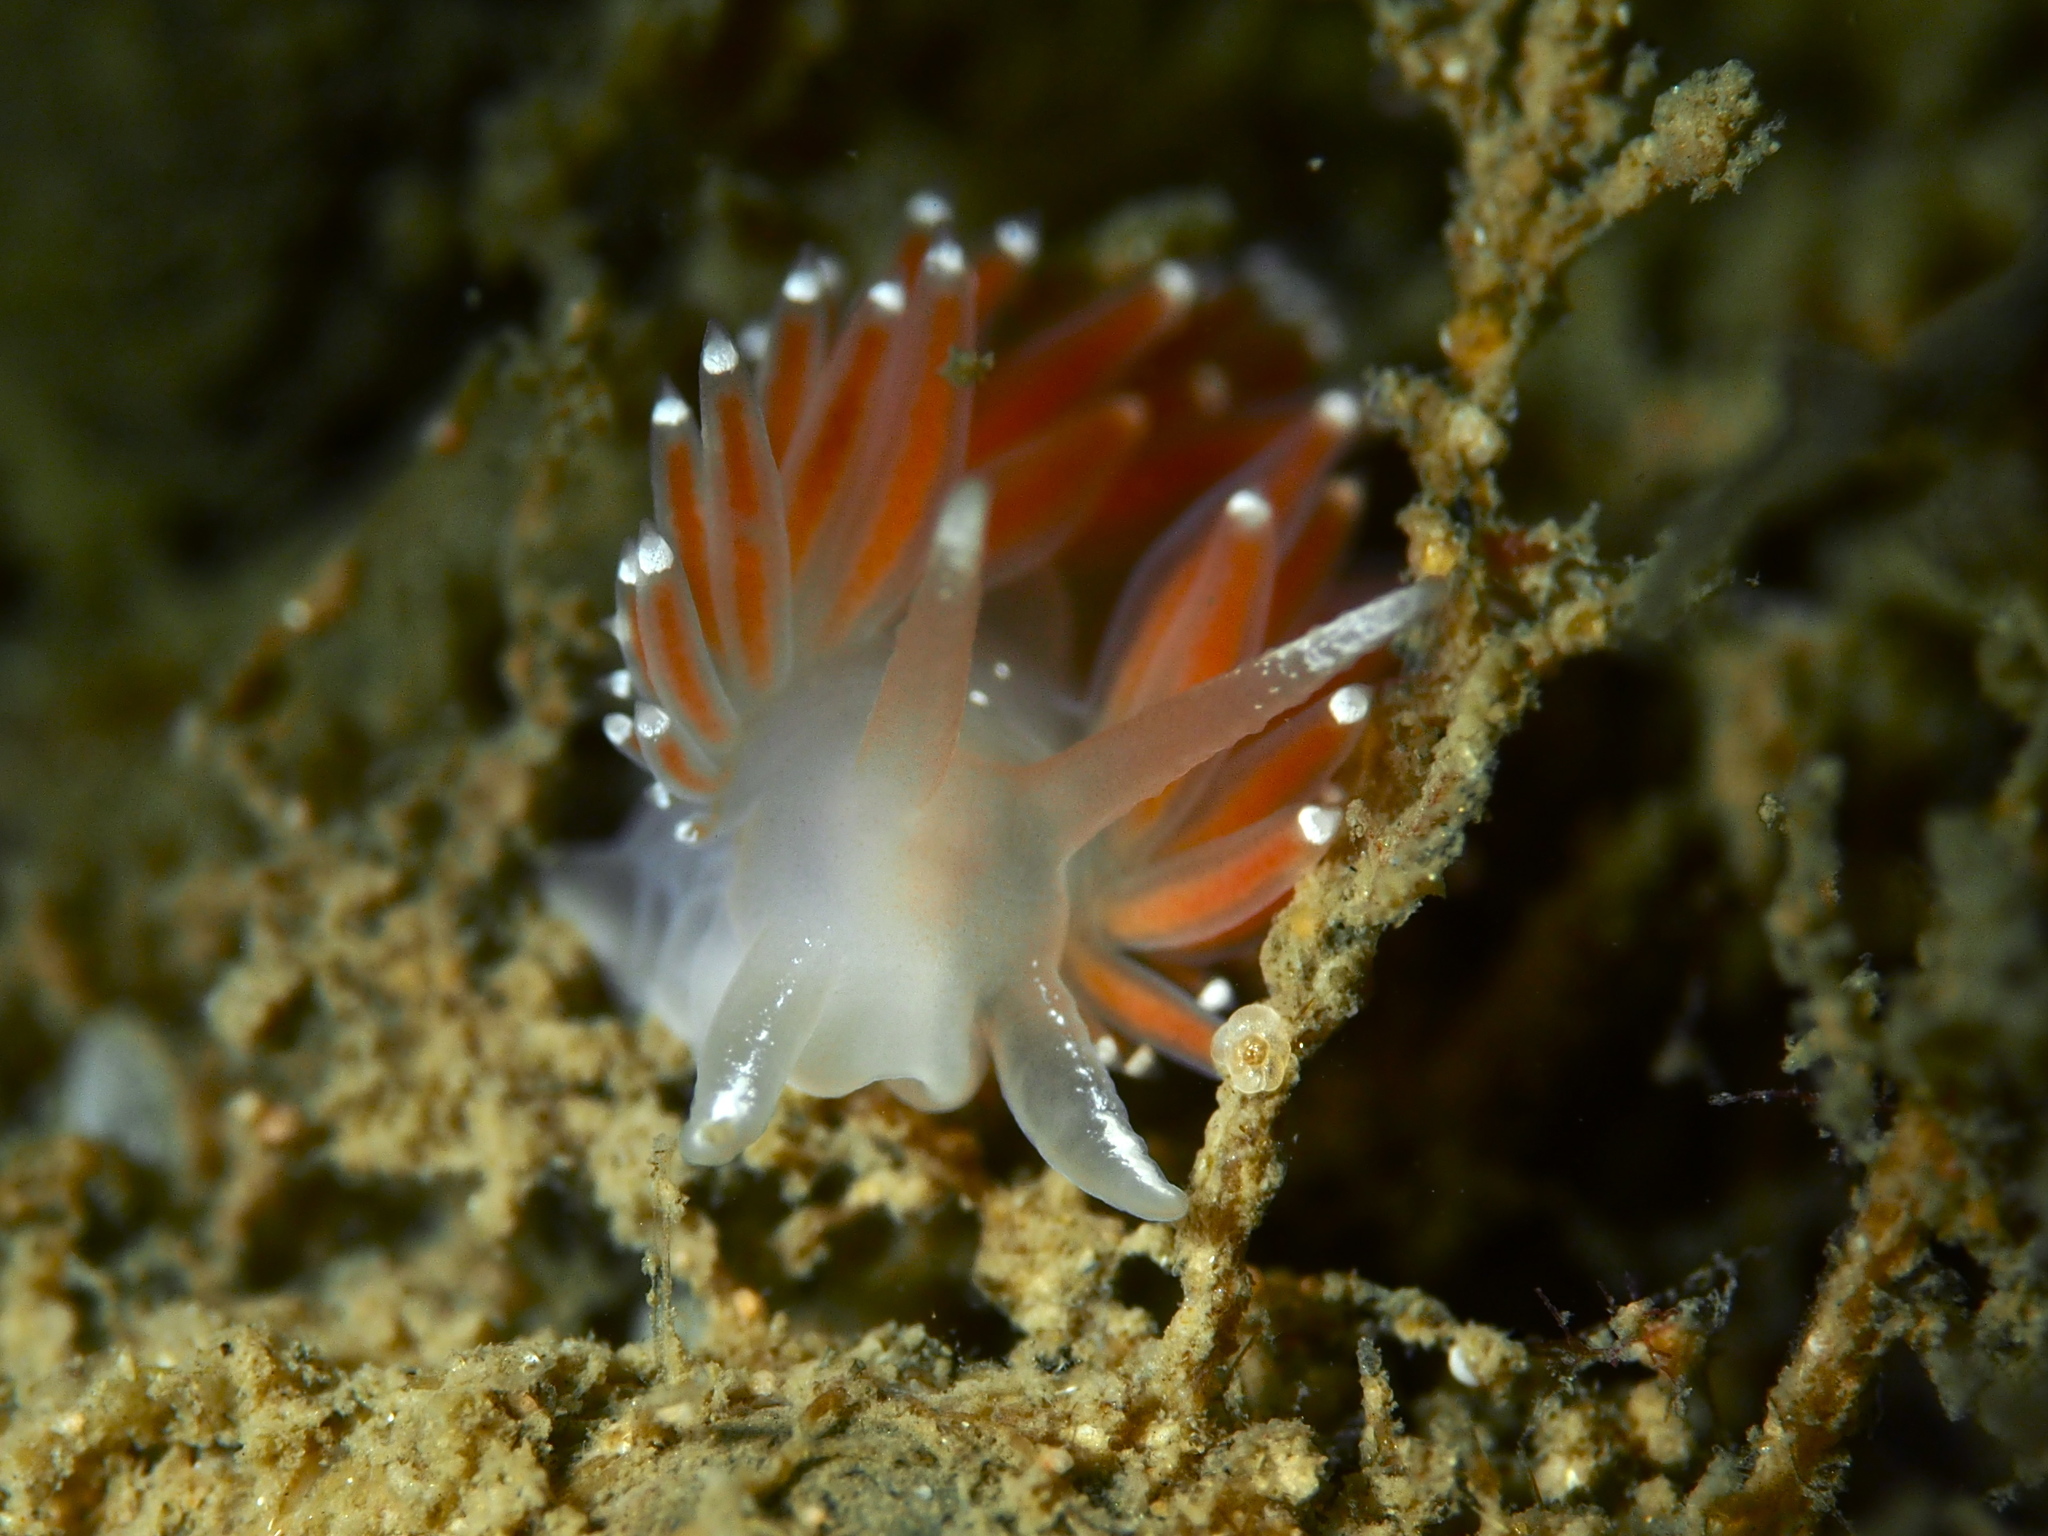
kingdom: Animalia
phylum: Mollusca
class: Gastropoda
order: Nudibranchia
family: Coryphellidae
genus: Coryphella
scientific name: Coryphella verrucosa
